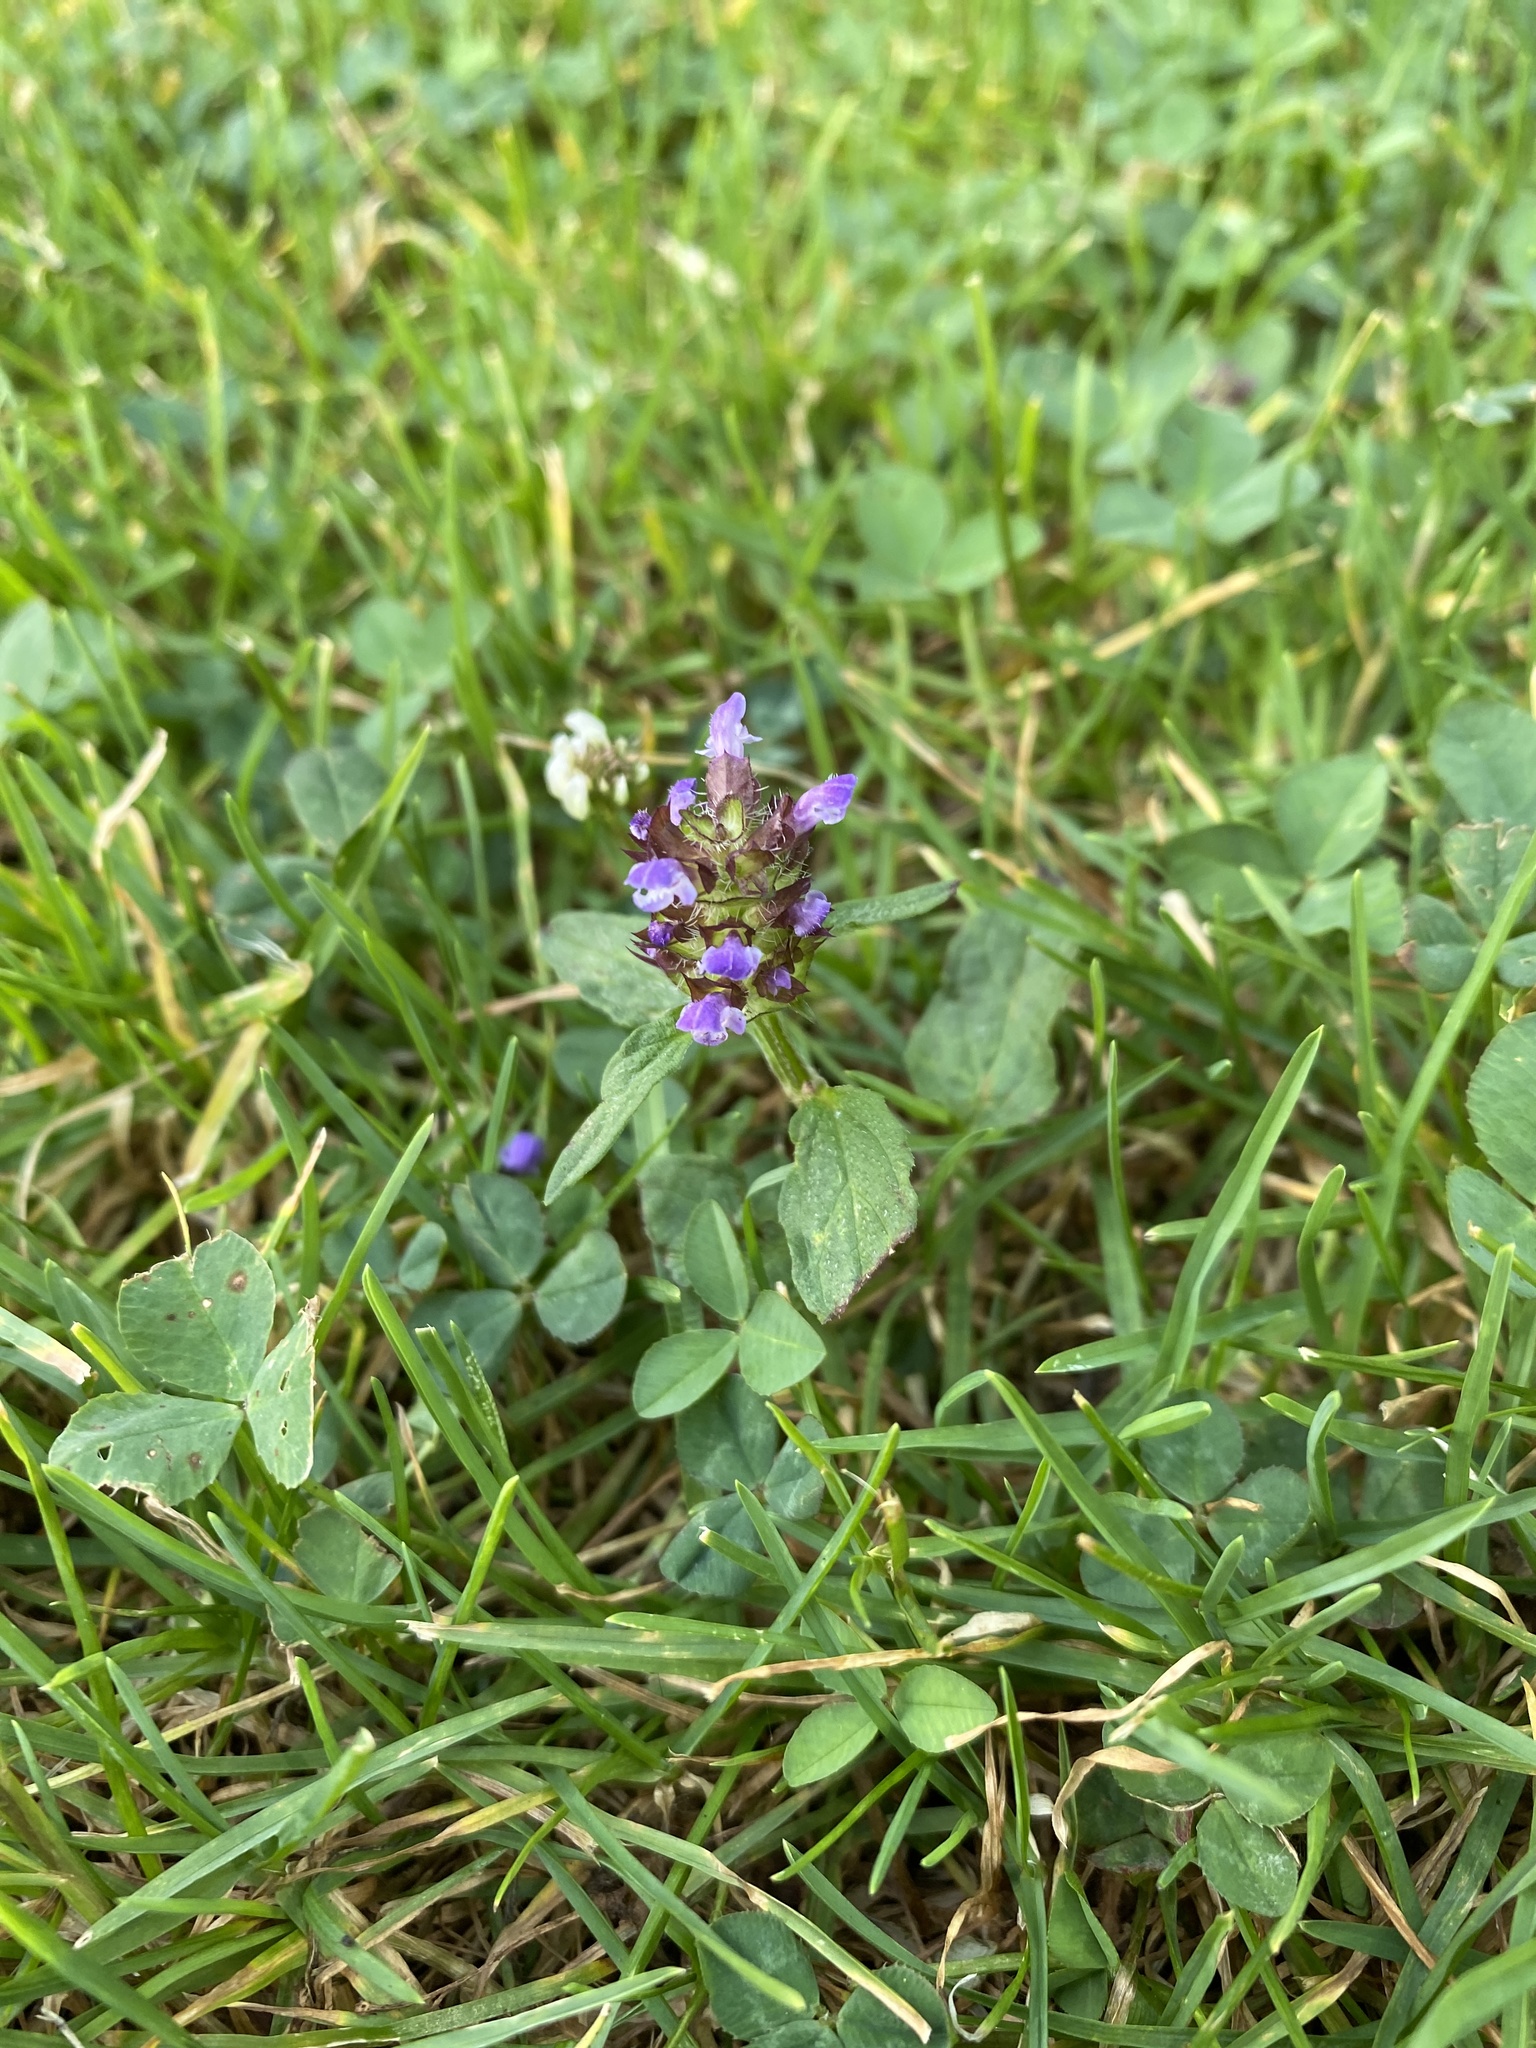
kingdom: Plantae
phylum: Tracheophyta
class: Magnoliopsida
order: Lamiales
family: Lamiaceae
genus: Prunella
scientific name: Prunella vulgaris
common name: Heal-all
